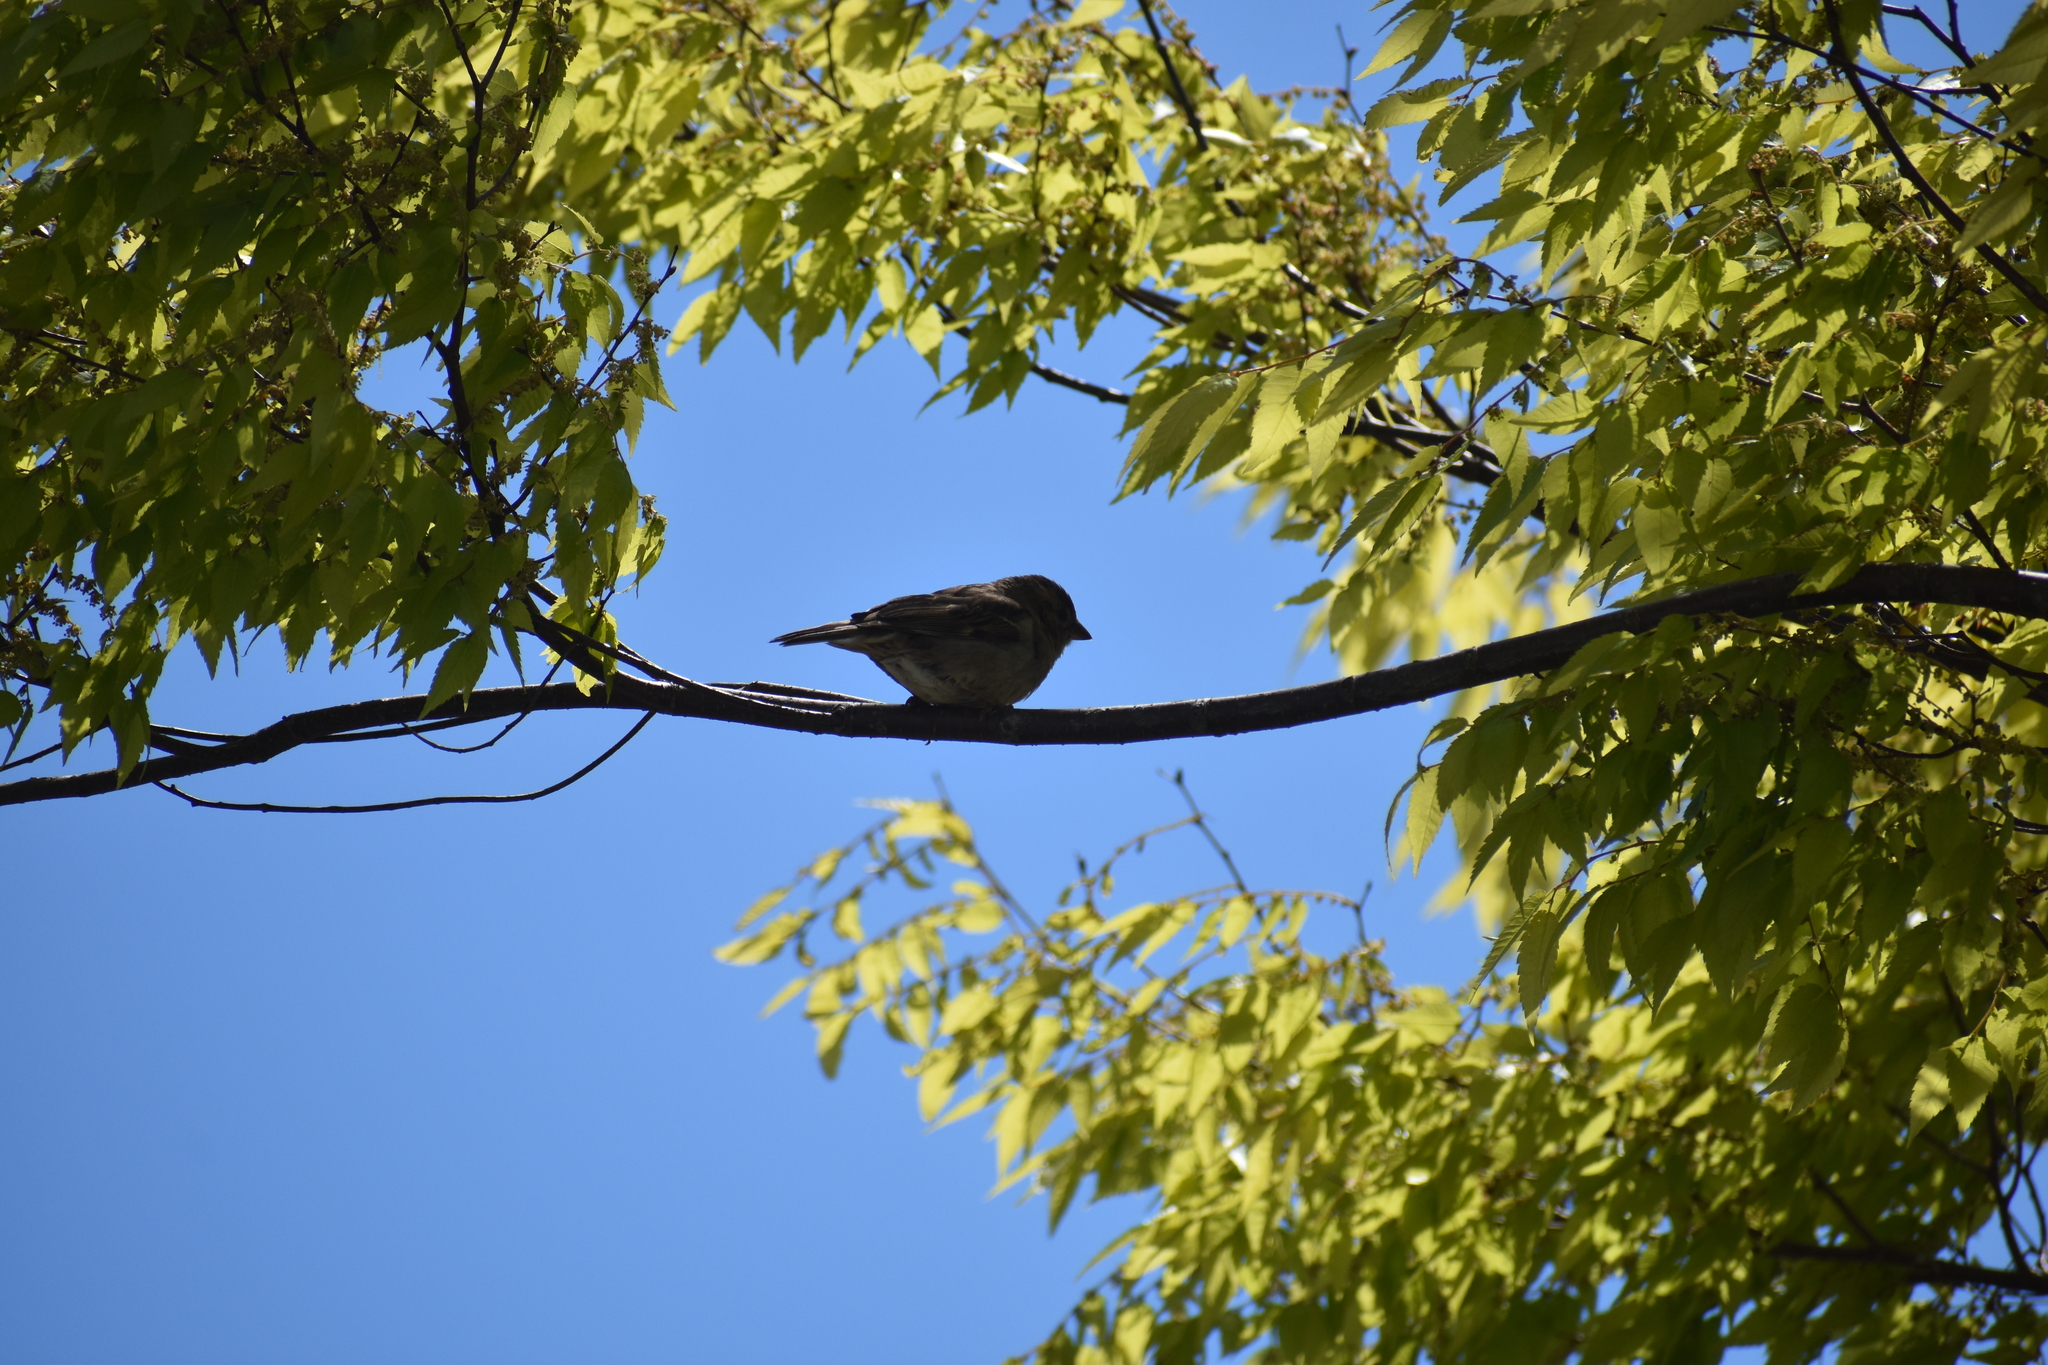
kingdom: Animalia
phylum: Chordata
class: Aves
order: Passeriformes
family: Passeridae
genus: Passer
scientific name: Passer domesticus
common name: House sparrow
